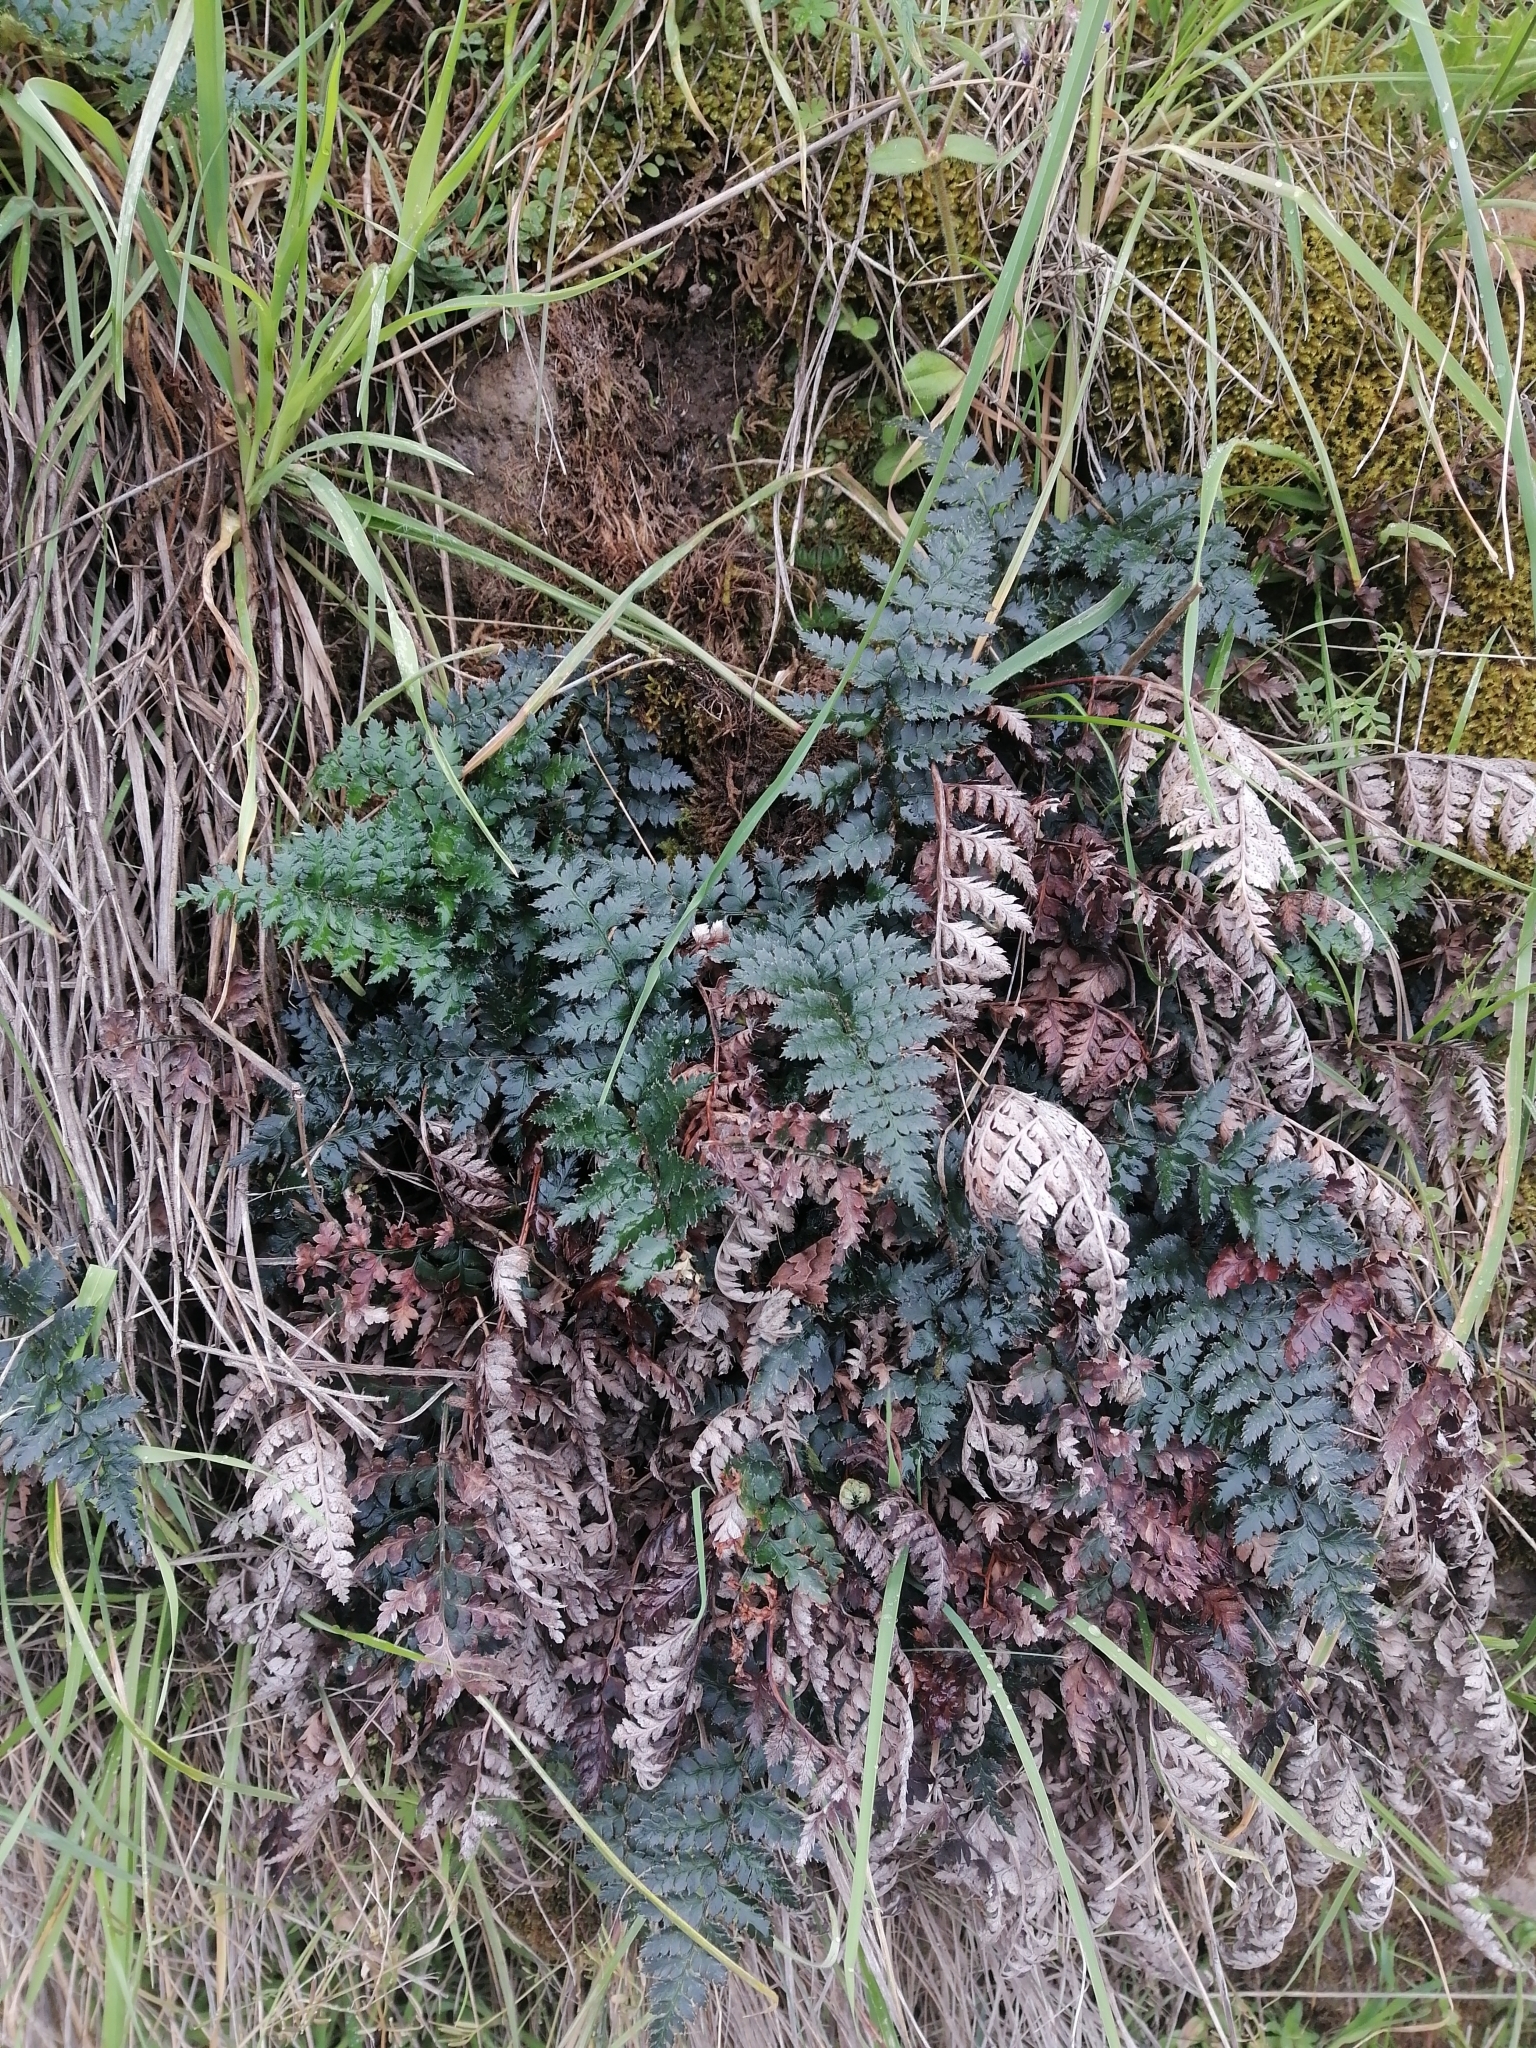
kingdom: Plantae
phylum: Tracheophyta
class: Polypodiopsida
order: Polypodiales
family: Dryopteridaceae
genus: Polystichum
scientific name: Polystichum oculatum
